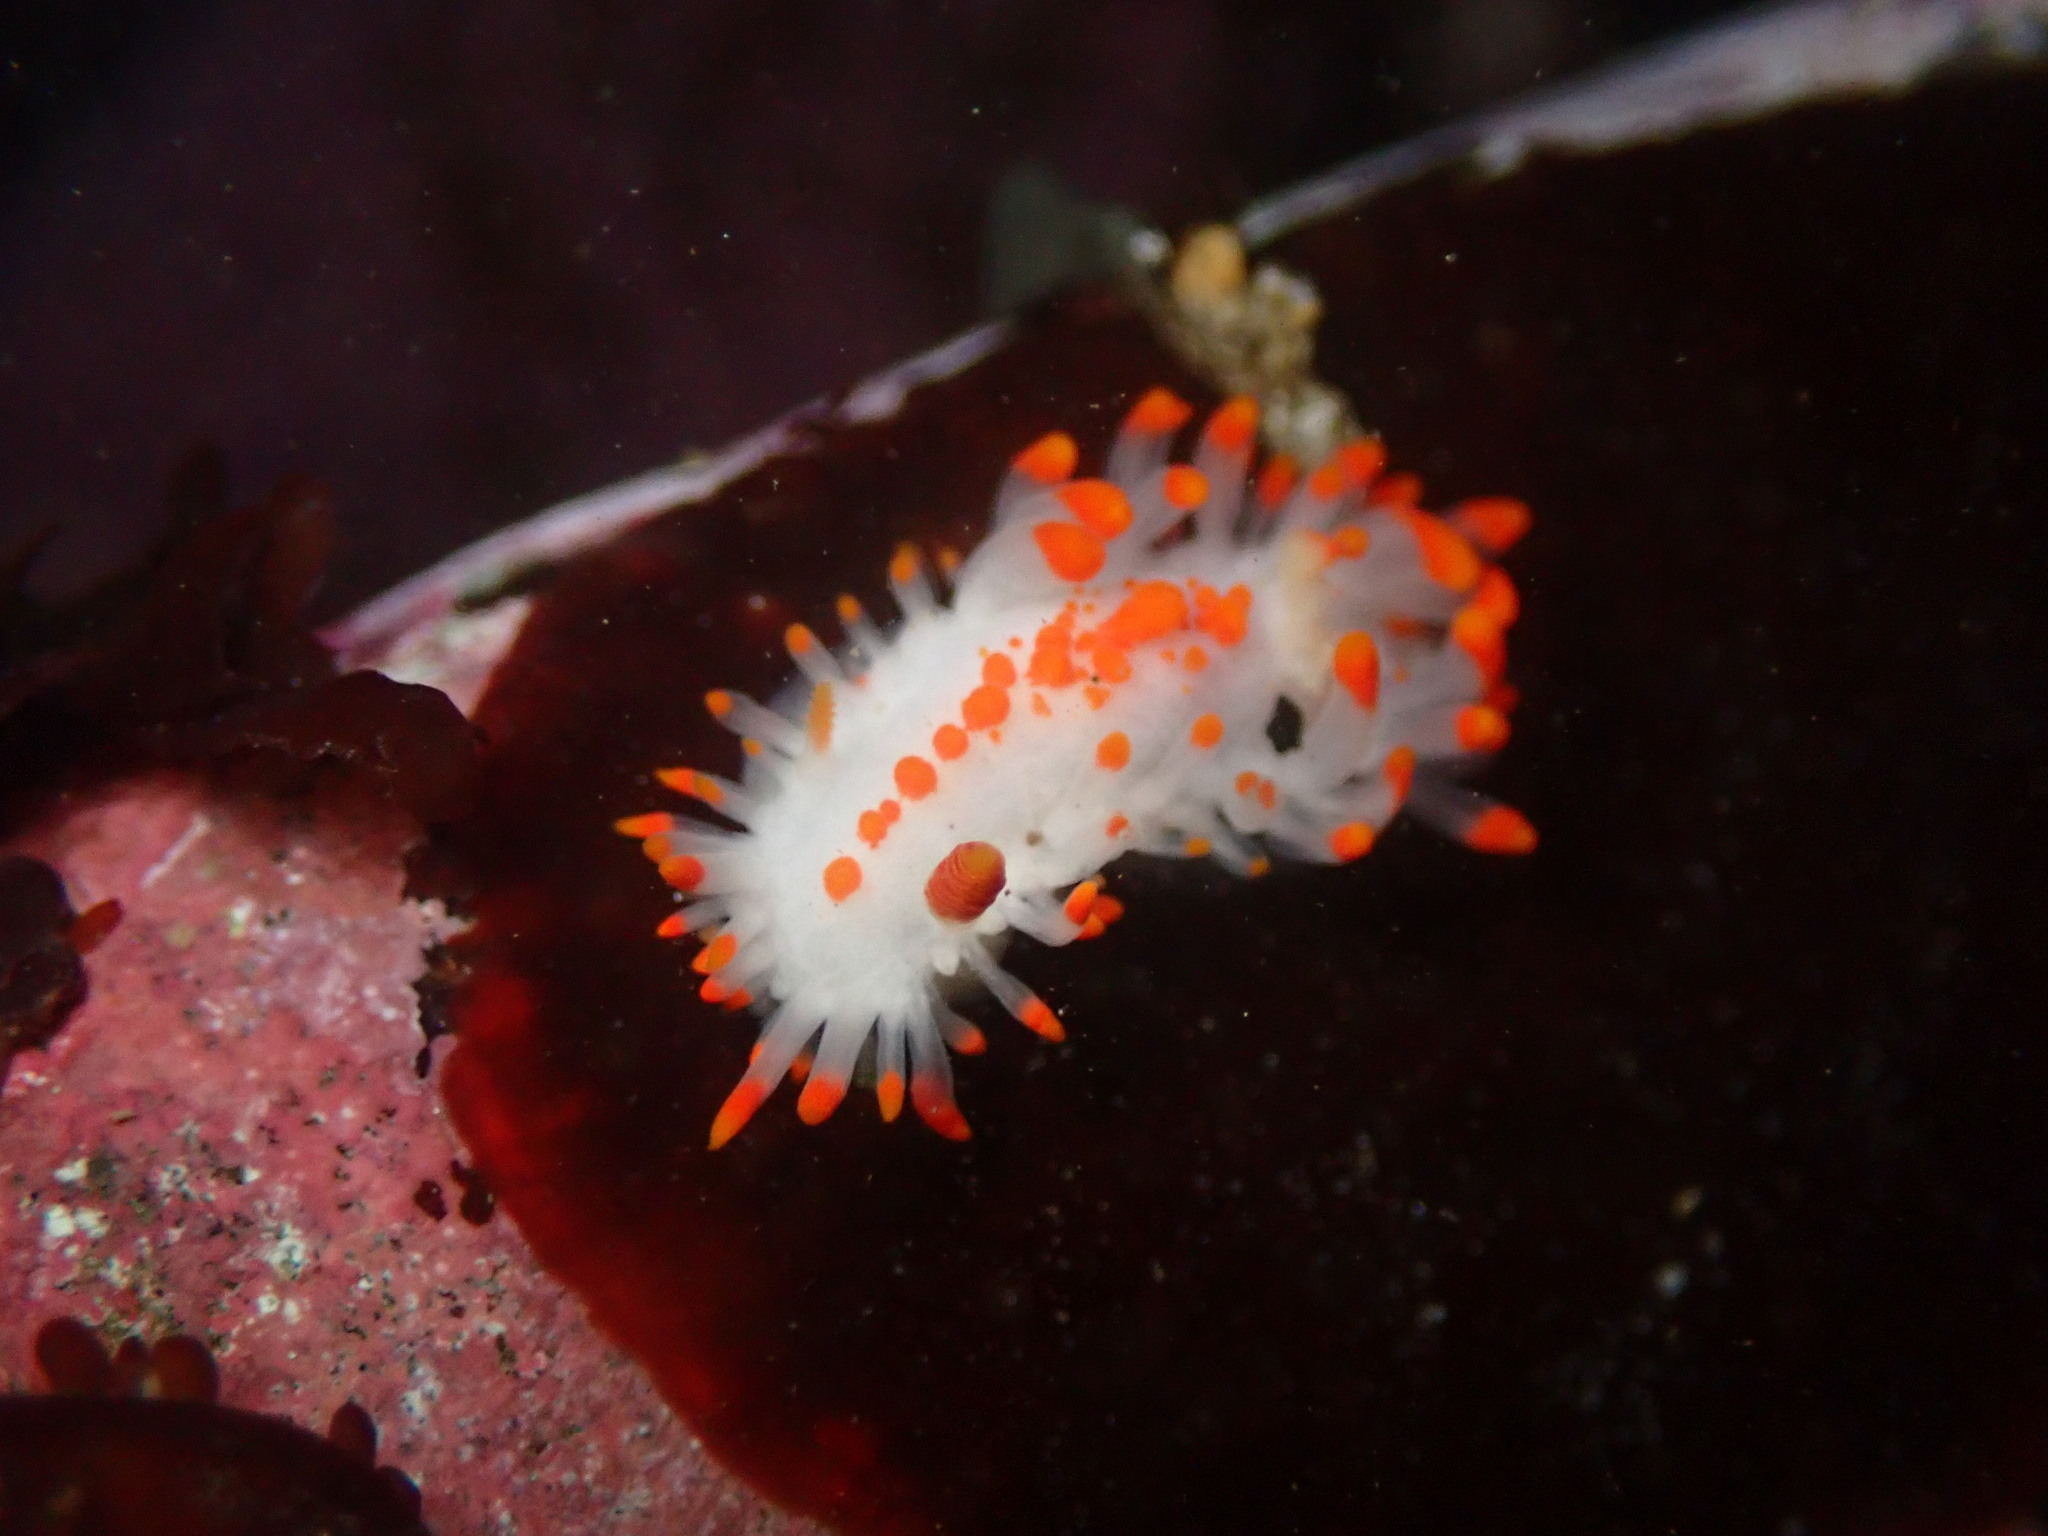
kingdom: Animalia
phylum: Mollusca
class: Gastropoda
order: Nudibranchia
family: Polyceridae
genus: Limacia
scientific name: Limacia mcdonaldi
